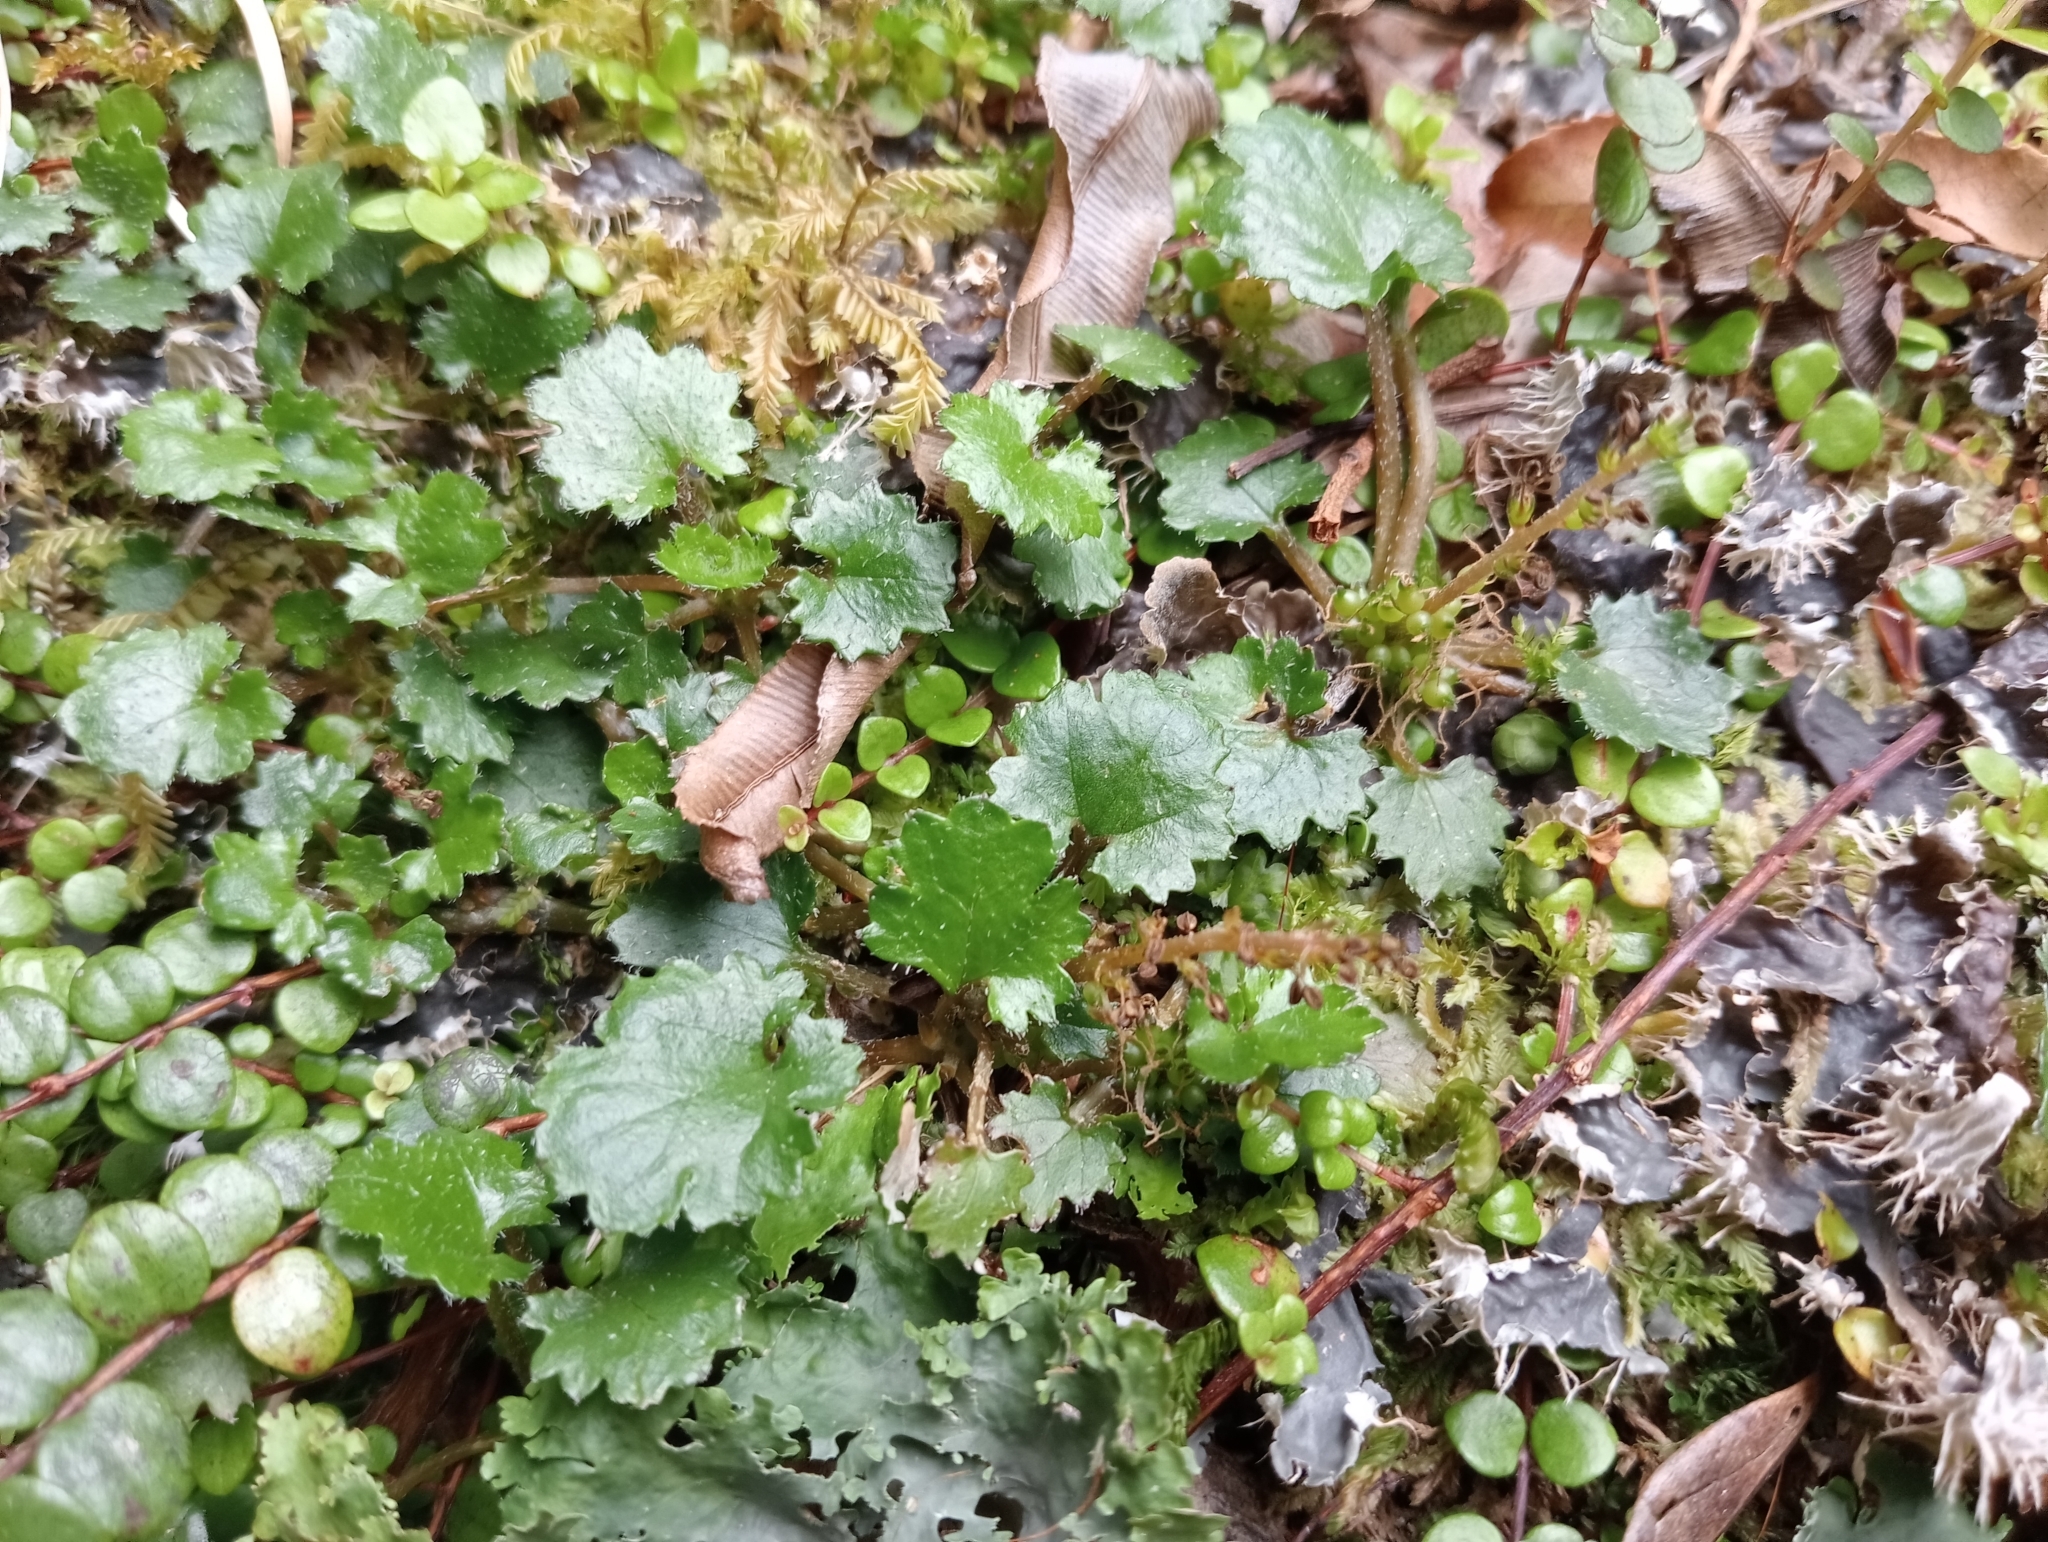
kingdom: Plantae
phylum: Tracheophyta
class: Magnoliopsida
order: Gunnerales
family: Gunneraceae
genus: Gunnera
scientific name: Gunnera monoica
